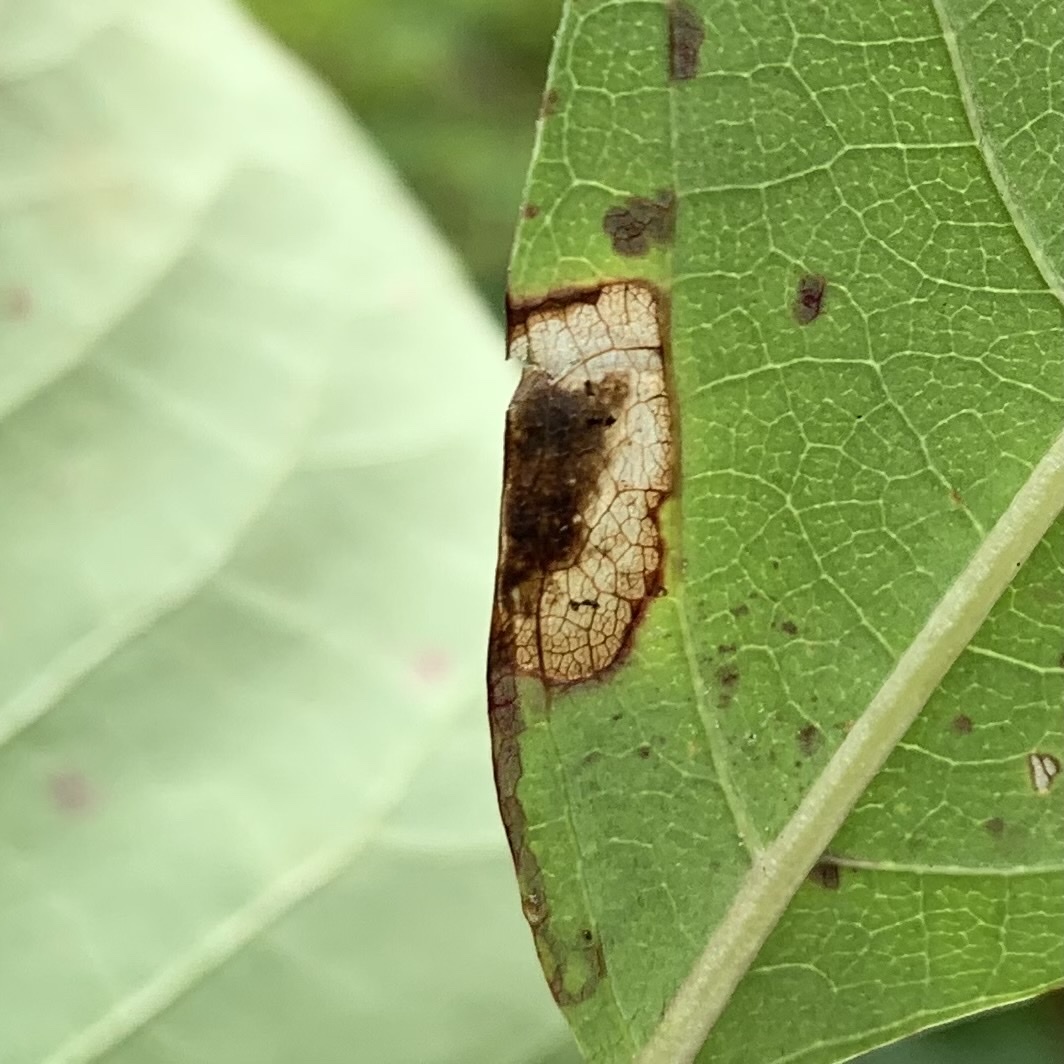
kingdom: Animalia
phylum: Arthropoda
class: Insecta
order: Lepidoptera
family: Nepticulidae
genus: Ectoedemia
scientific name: Ectoedemia nyssaefoliella
